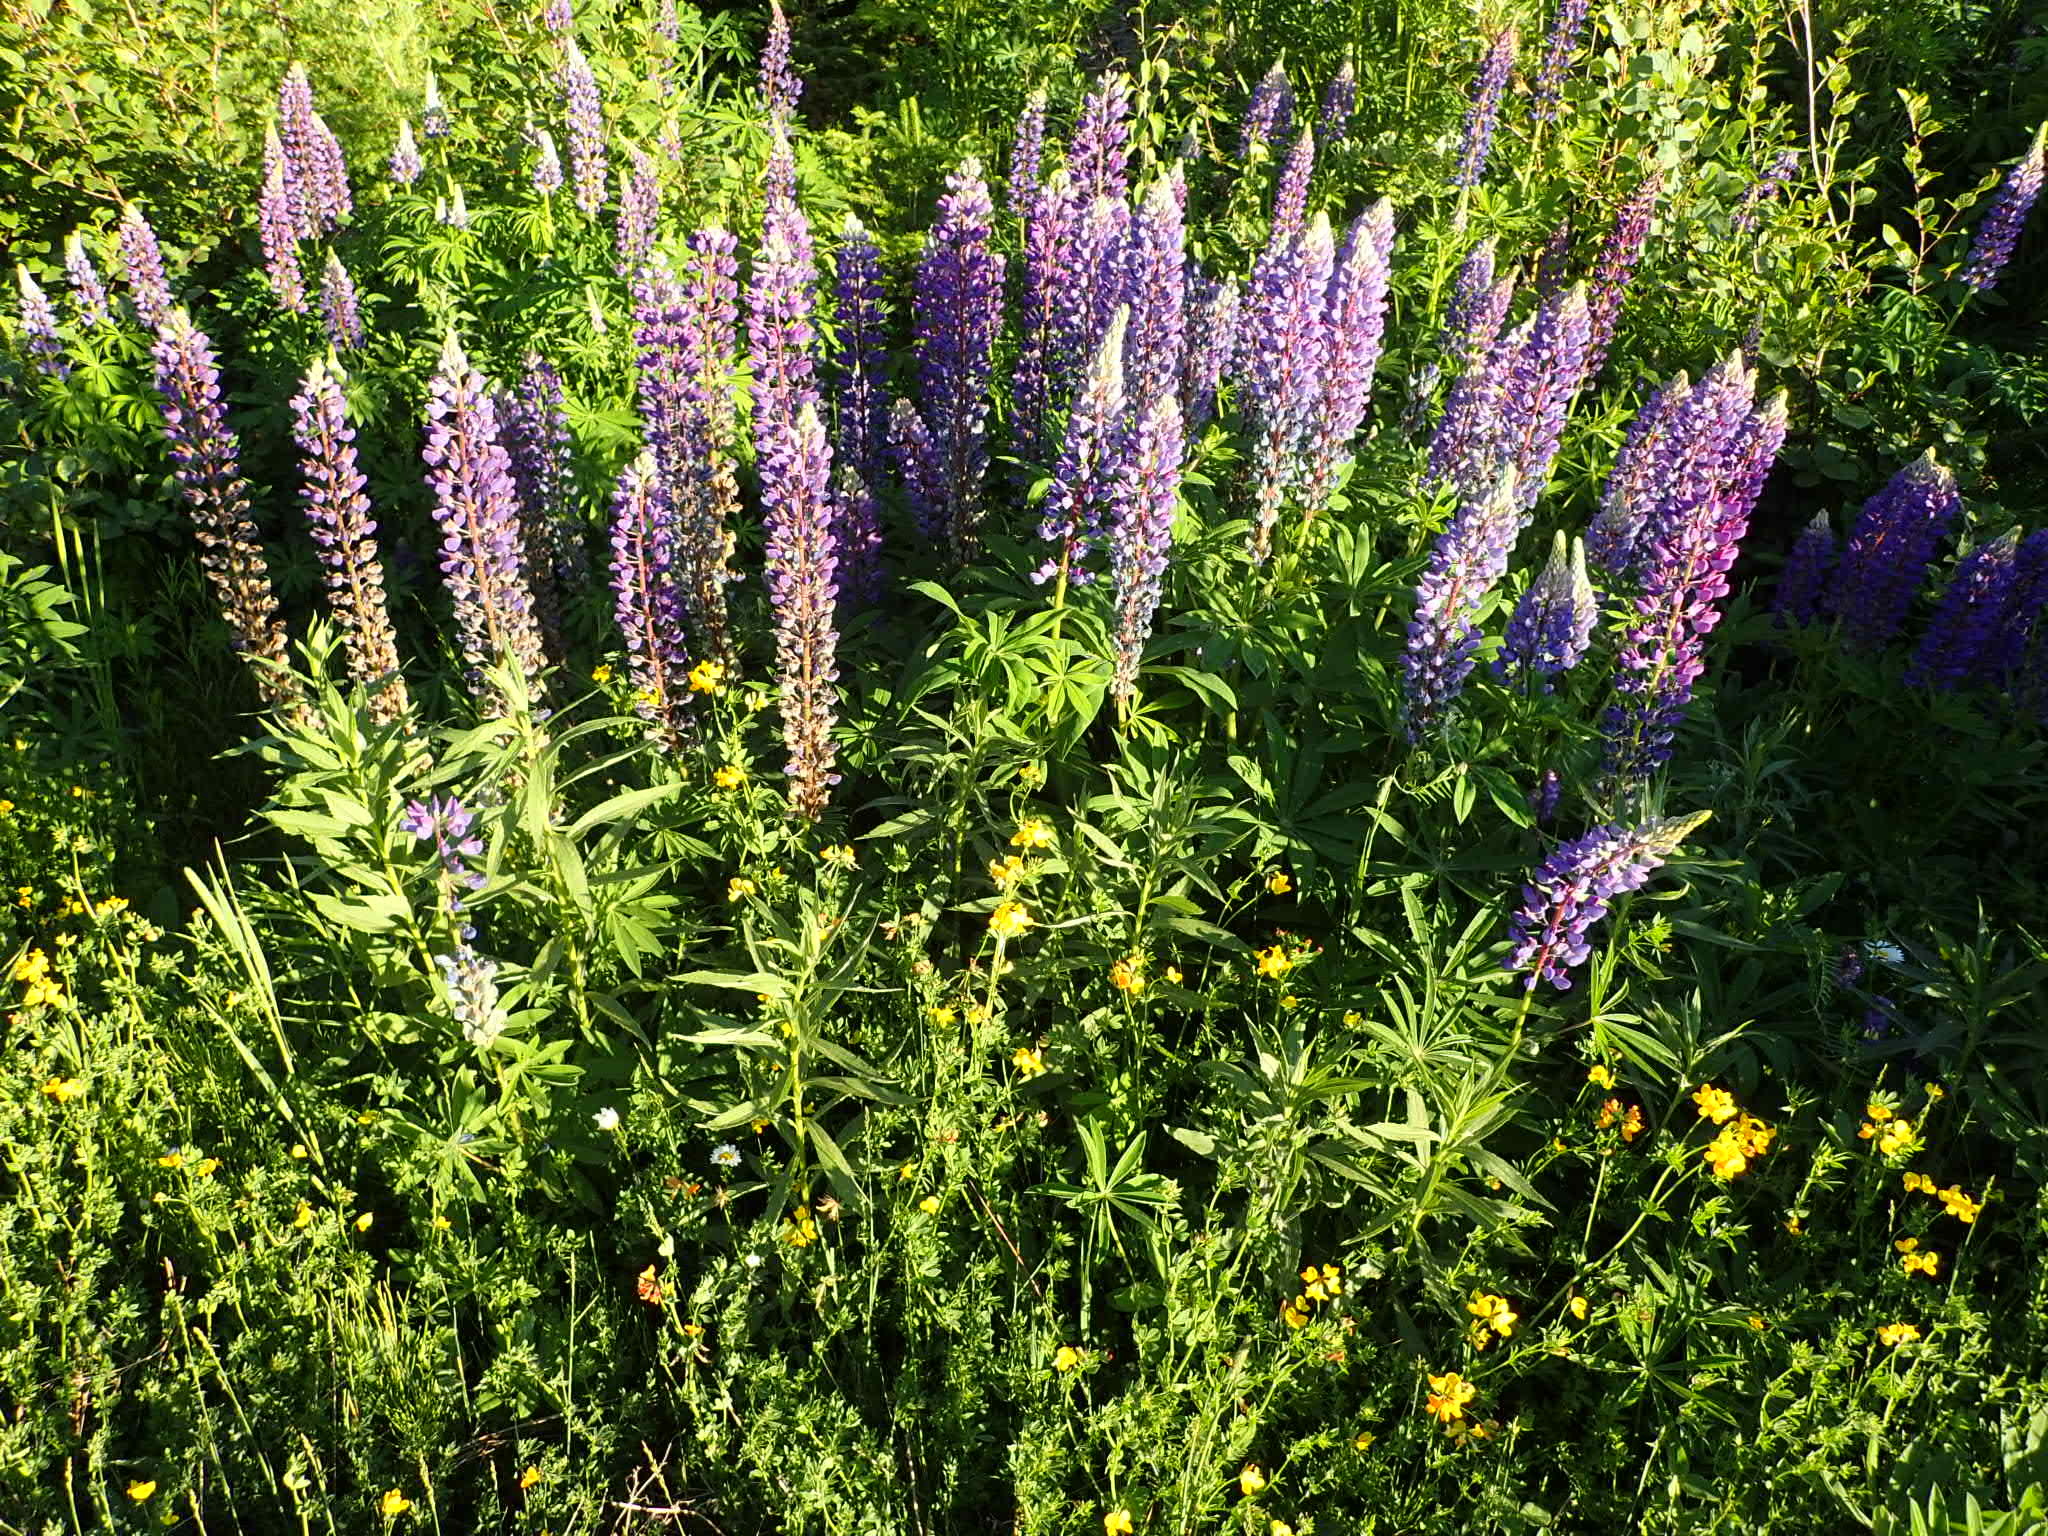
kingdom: Plantae
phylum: Tracheophyta
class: Magnoliopsida
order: Fabales
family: Fabaceae
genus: Lupinus
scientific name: Lupinus polyphyllus
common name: Garden lupin
